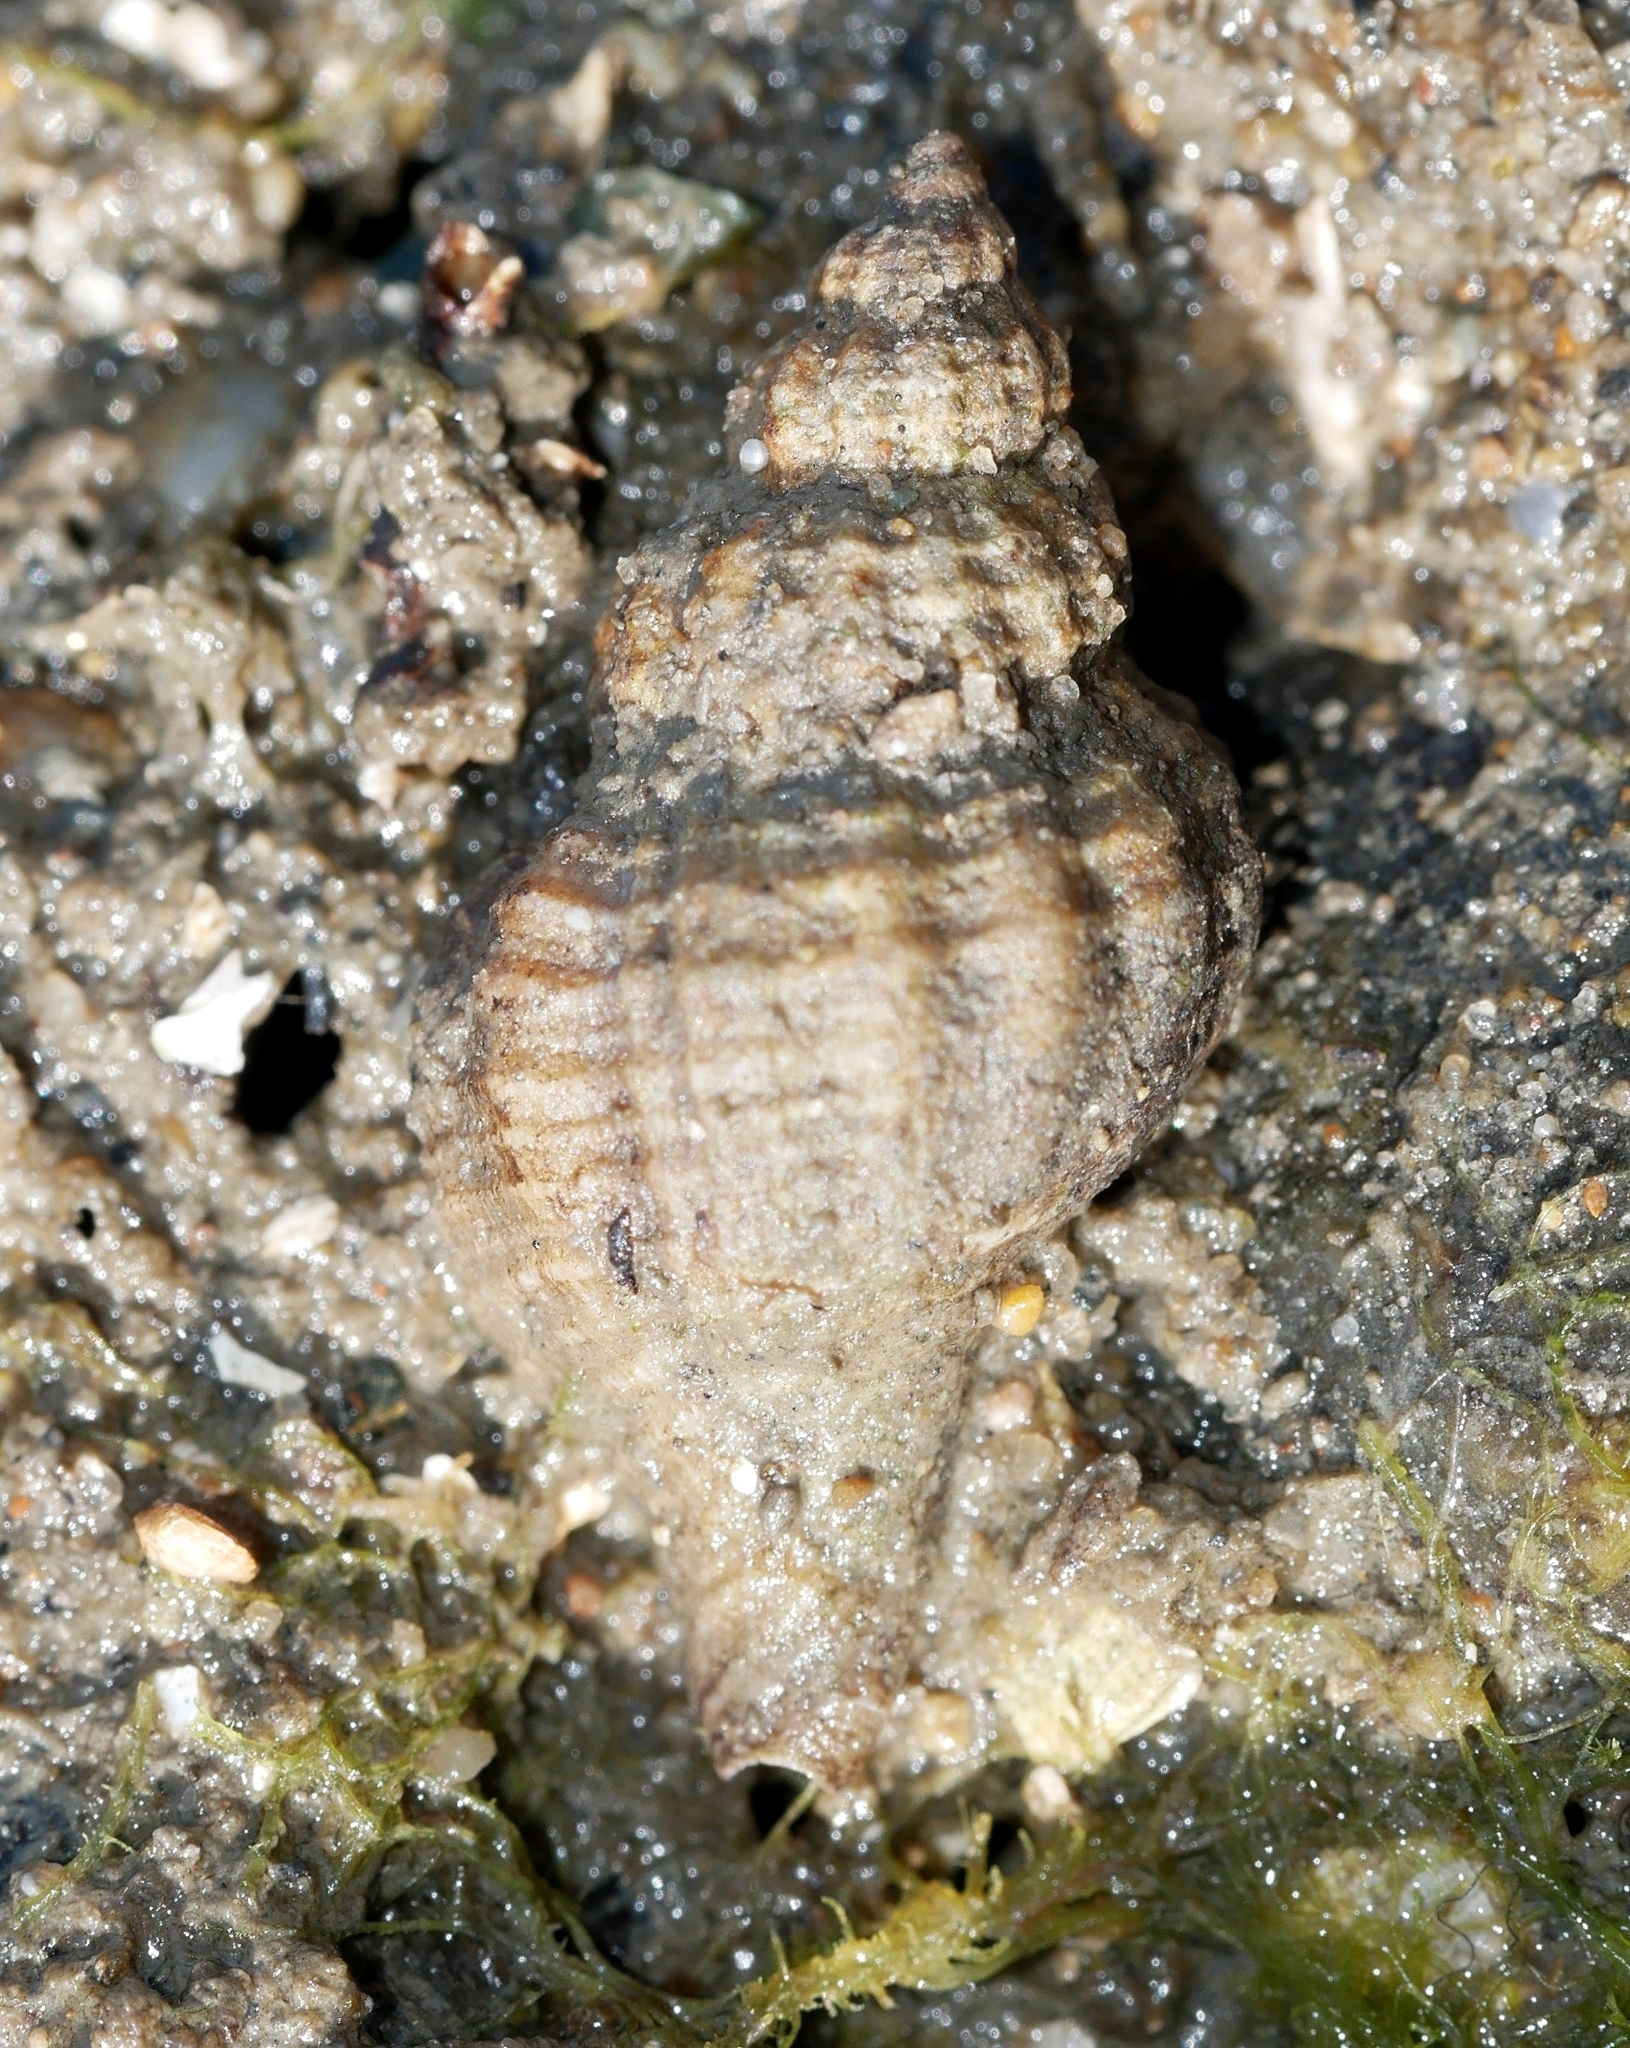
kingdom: Animalia
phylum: Mollusca
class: Gastropoda
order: Neogastropoda
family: Muricidae
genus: Urosalpinx
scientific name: Urosalpinx cinerea
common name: American sting winkle
